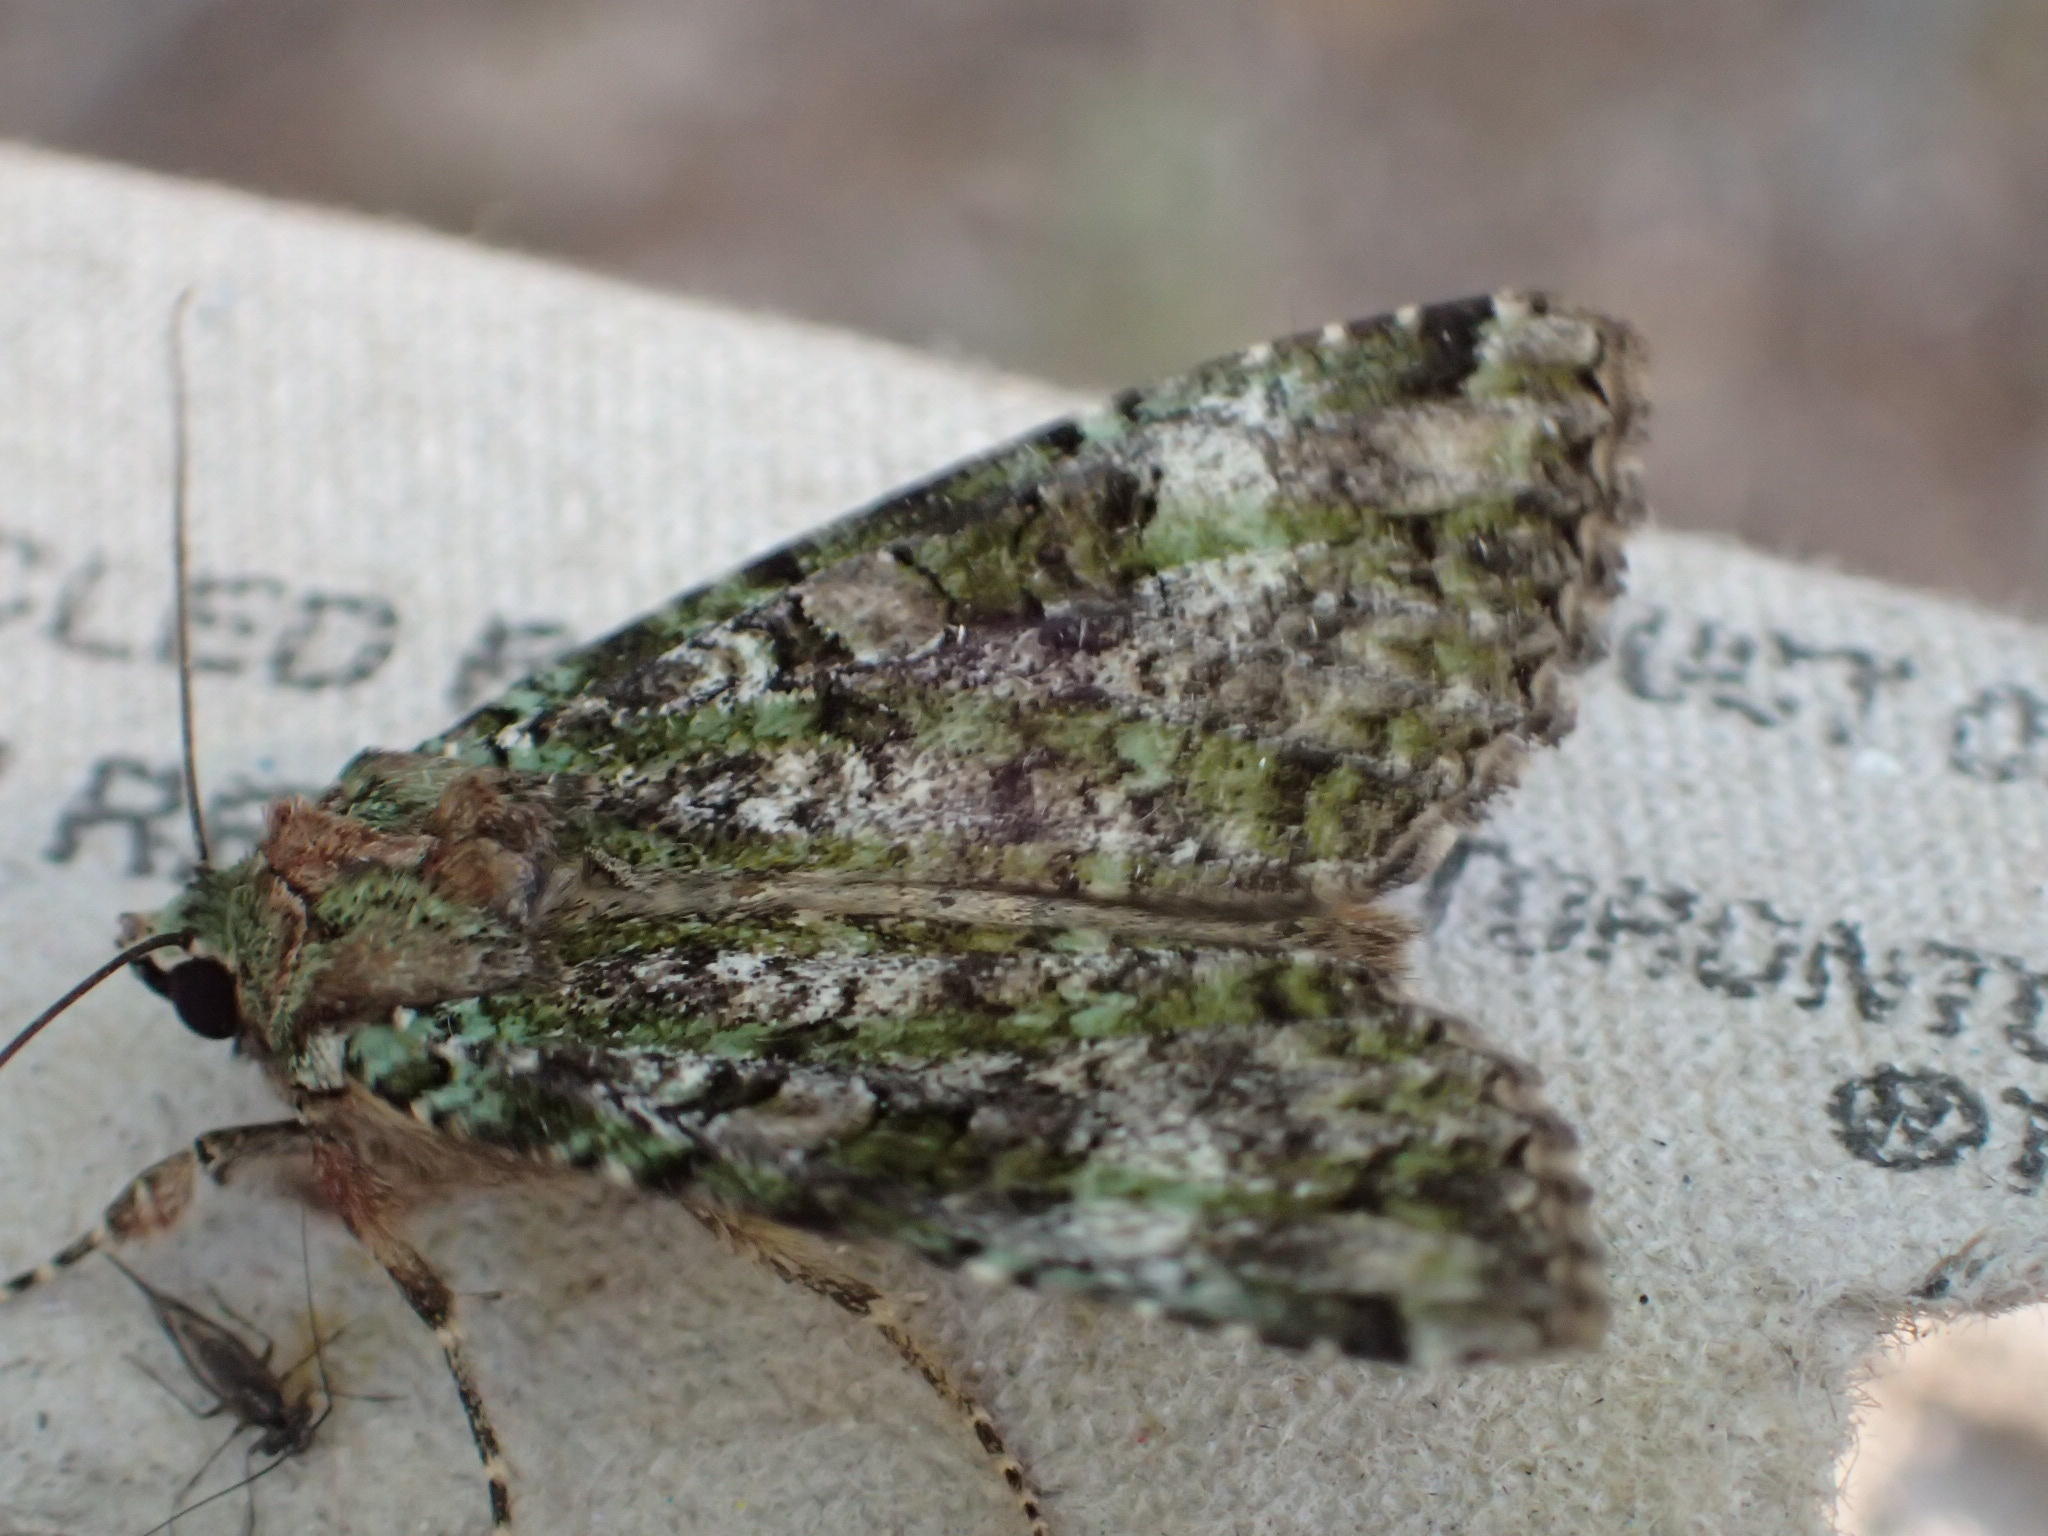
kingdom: Animalia
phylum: Arthropoda
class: Insecta
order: Lepidoptera
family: Noctuidae
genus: Anaplectoides
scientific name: Anaplectoides prasina
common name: Green arches
